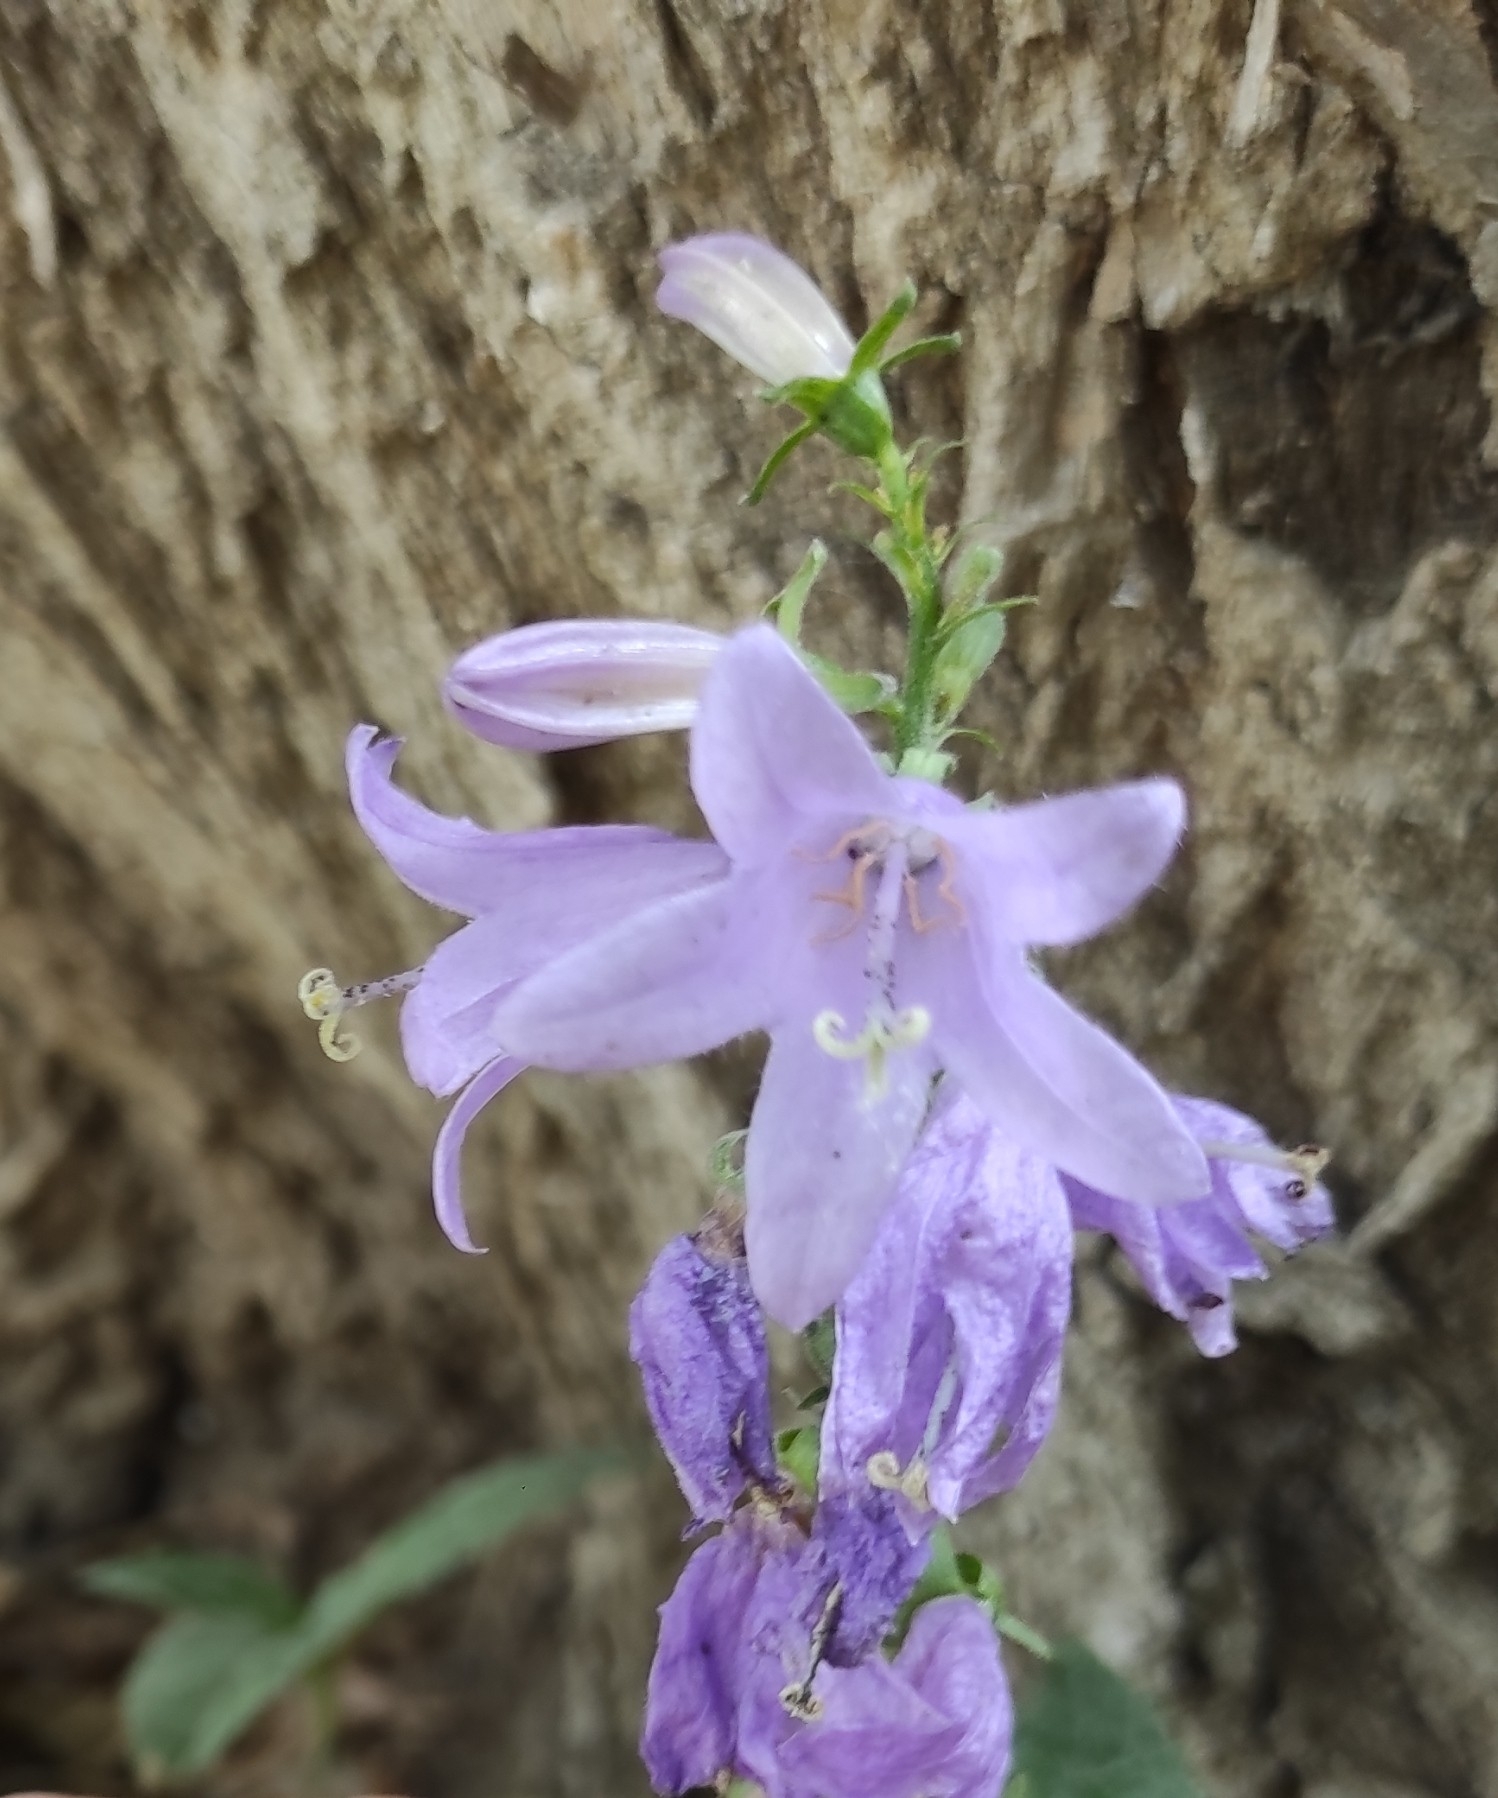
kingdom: Plantae
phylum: Tracheophyta
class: Magnoliopsida
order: Asterales
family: Campanulaceae
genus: Campanula
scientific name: Campanula rapunculoides
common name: Creeping bellflower
